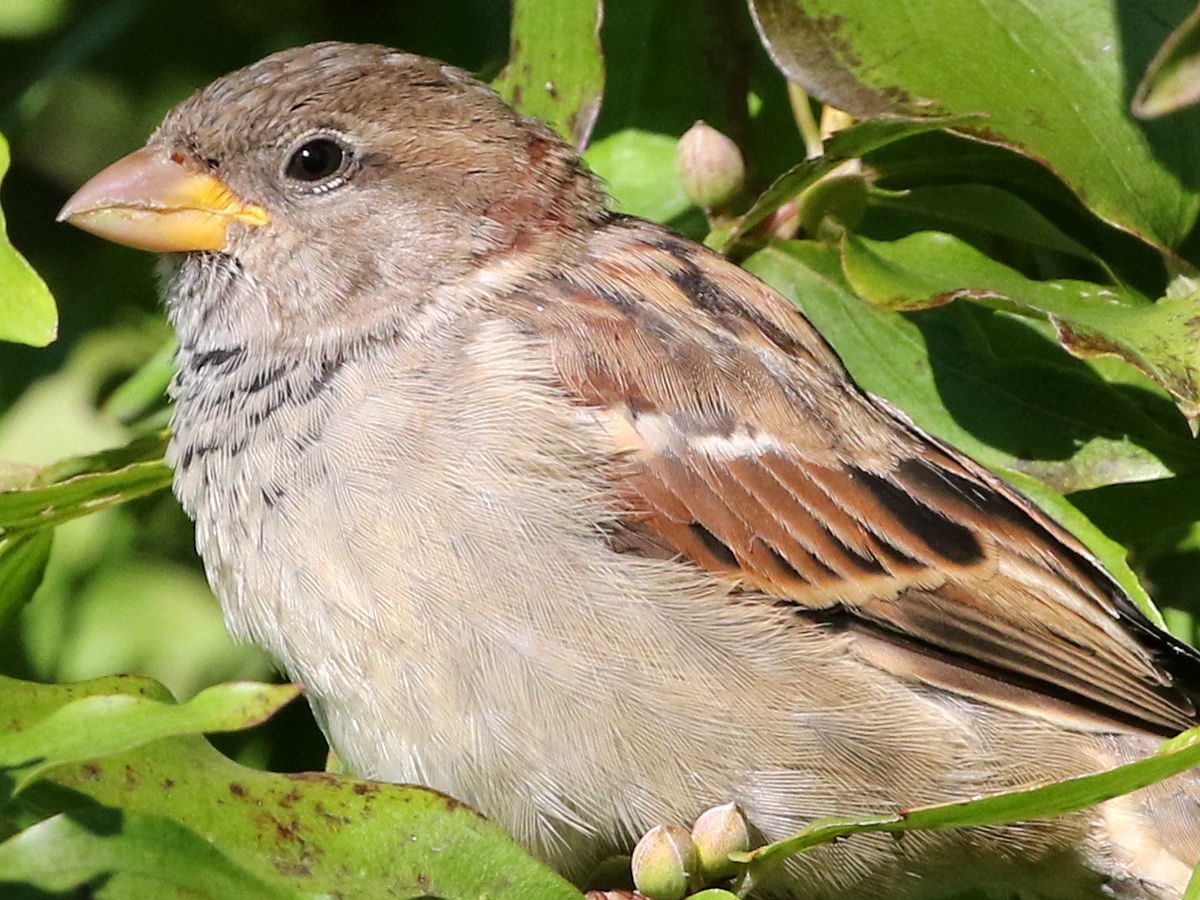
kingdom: Animalia
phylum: Chordata
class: Aves
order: Passeriformes
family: Passeridae
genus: Passer
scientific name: Passer domesticus
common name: House sparrow
